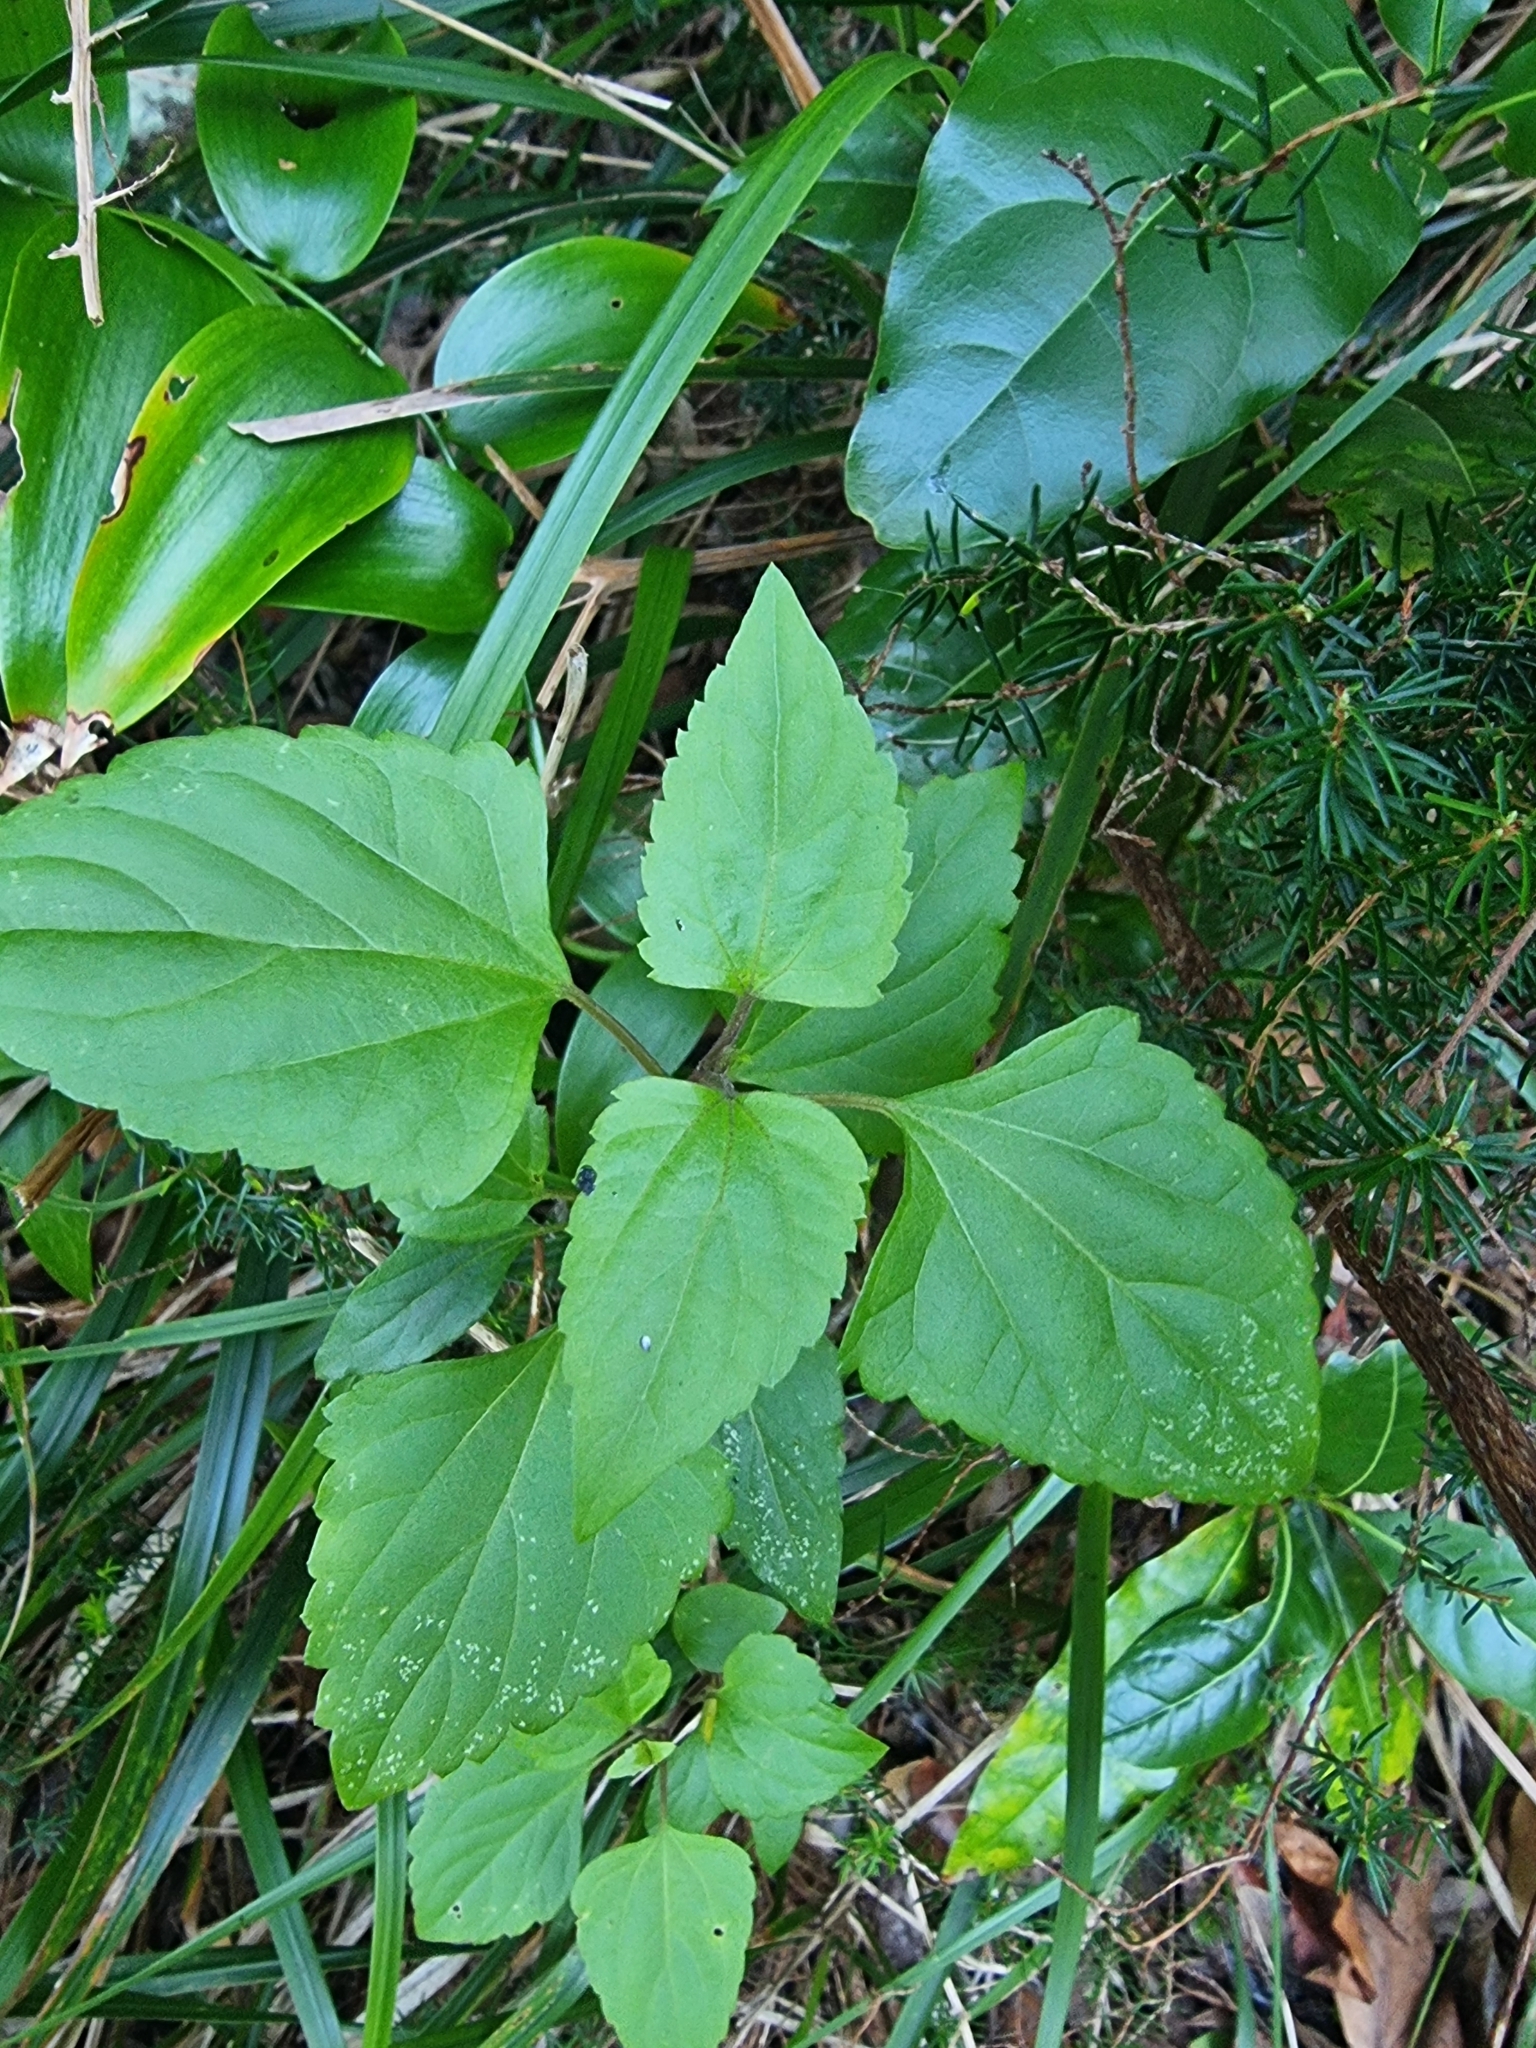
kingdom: Plantae
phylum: Tracheophyta
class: Magnoliopsida
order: Asterales
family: Asteraceae
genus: Ageratina
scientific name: Ageratina adenophora
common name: Sticky snakeroot
